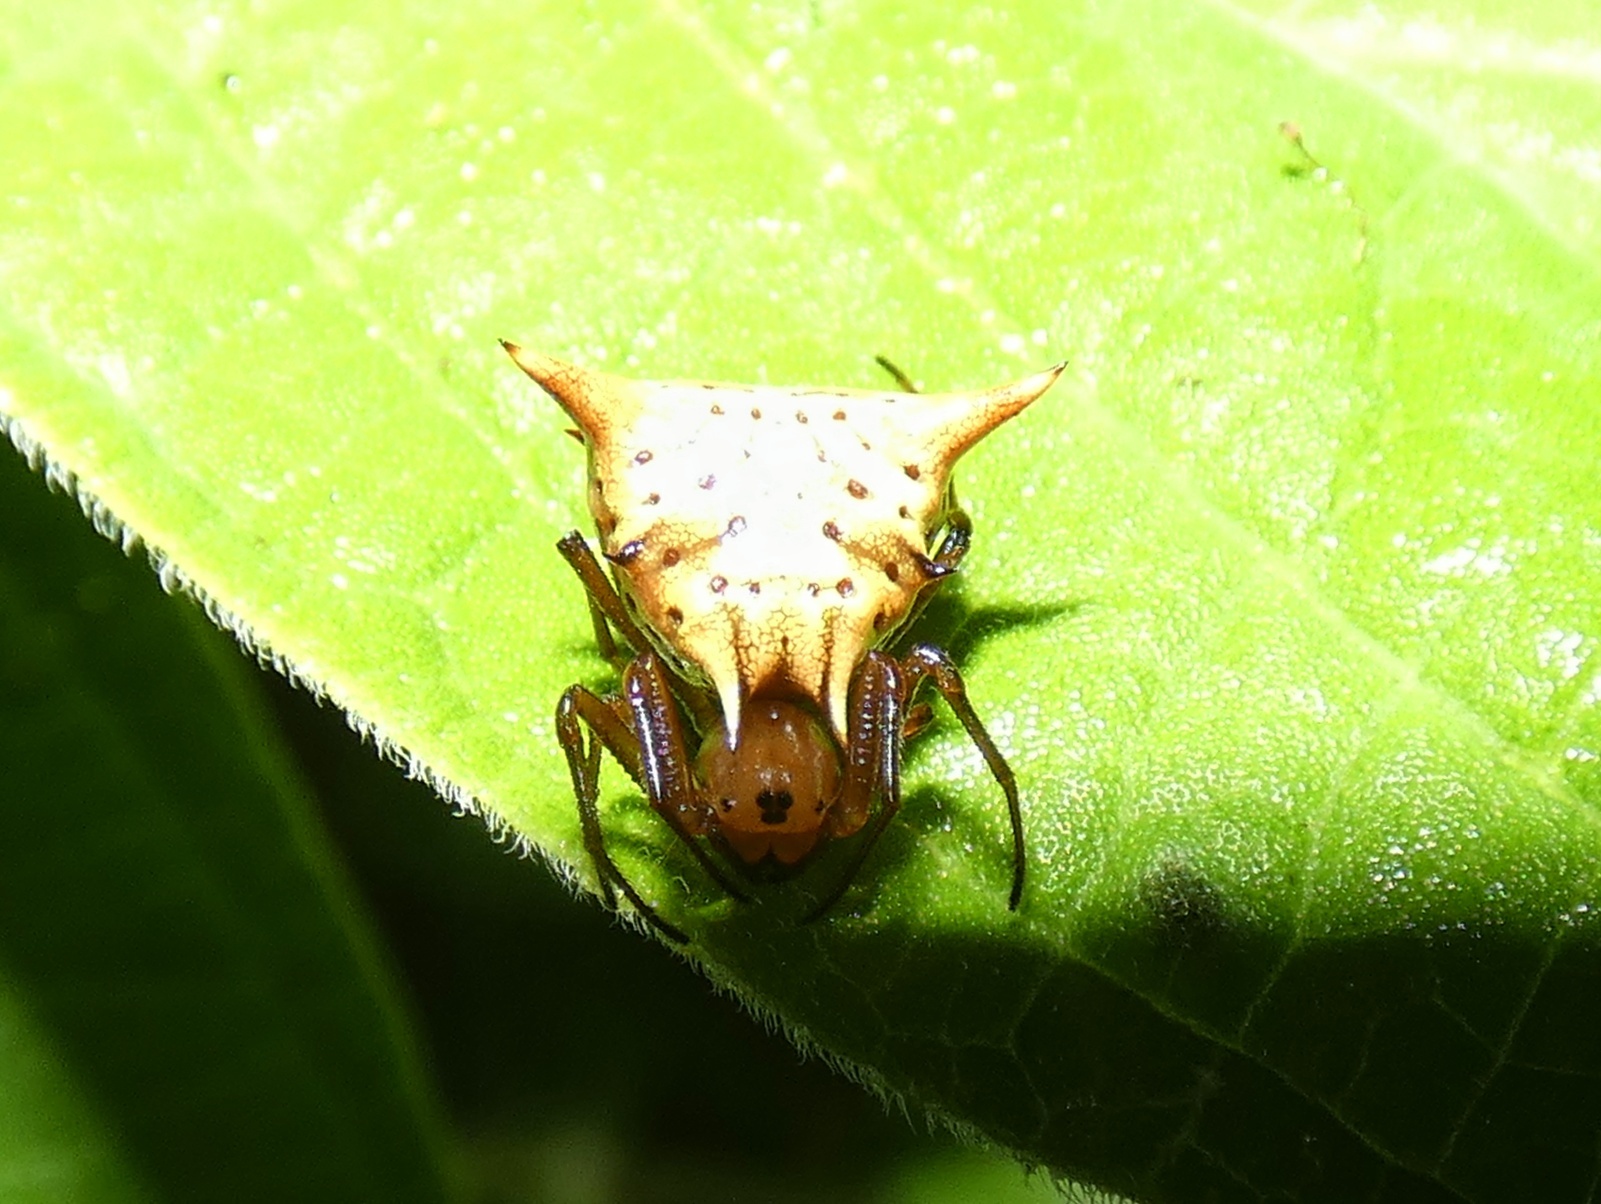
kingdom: Animalia
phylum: Arthropoda
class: Arachnida
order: Araneae
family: Araneidae
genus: Micrathena
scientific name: Micrathena flaveola
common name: Orb weavers
